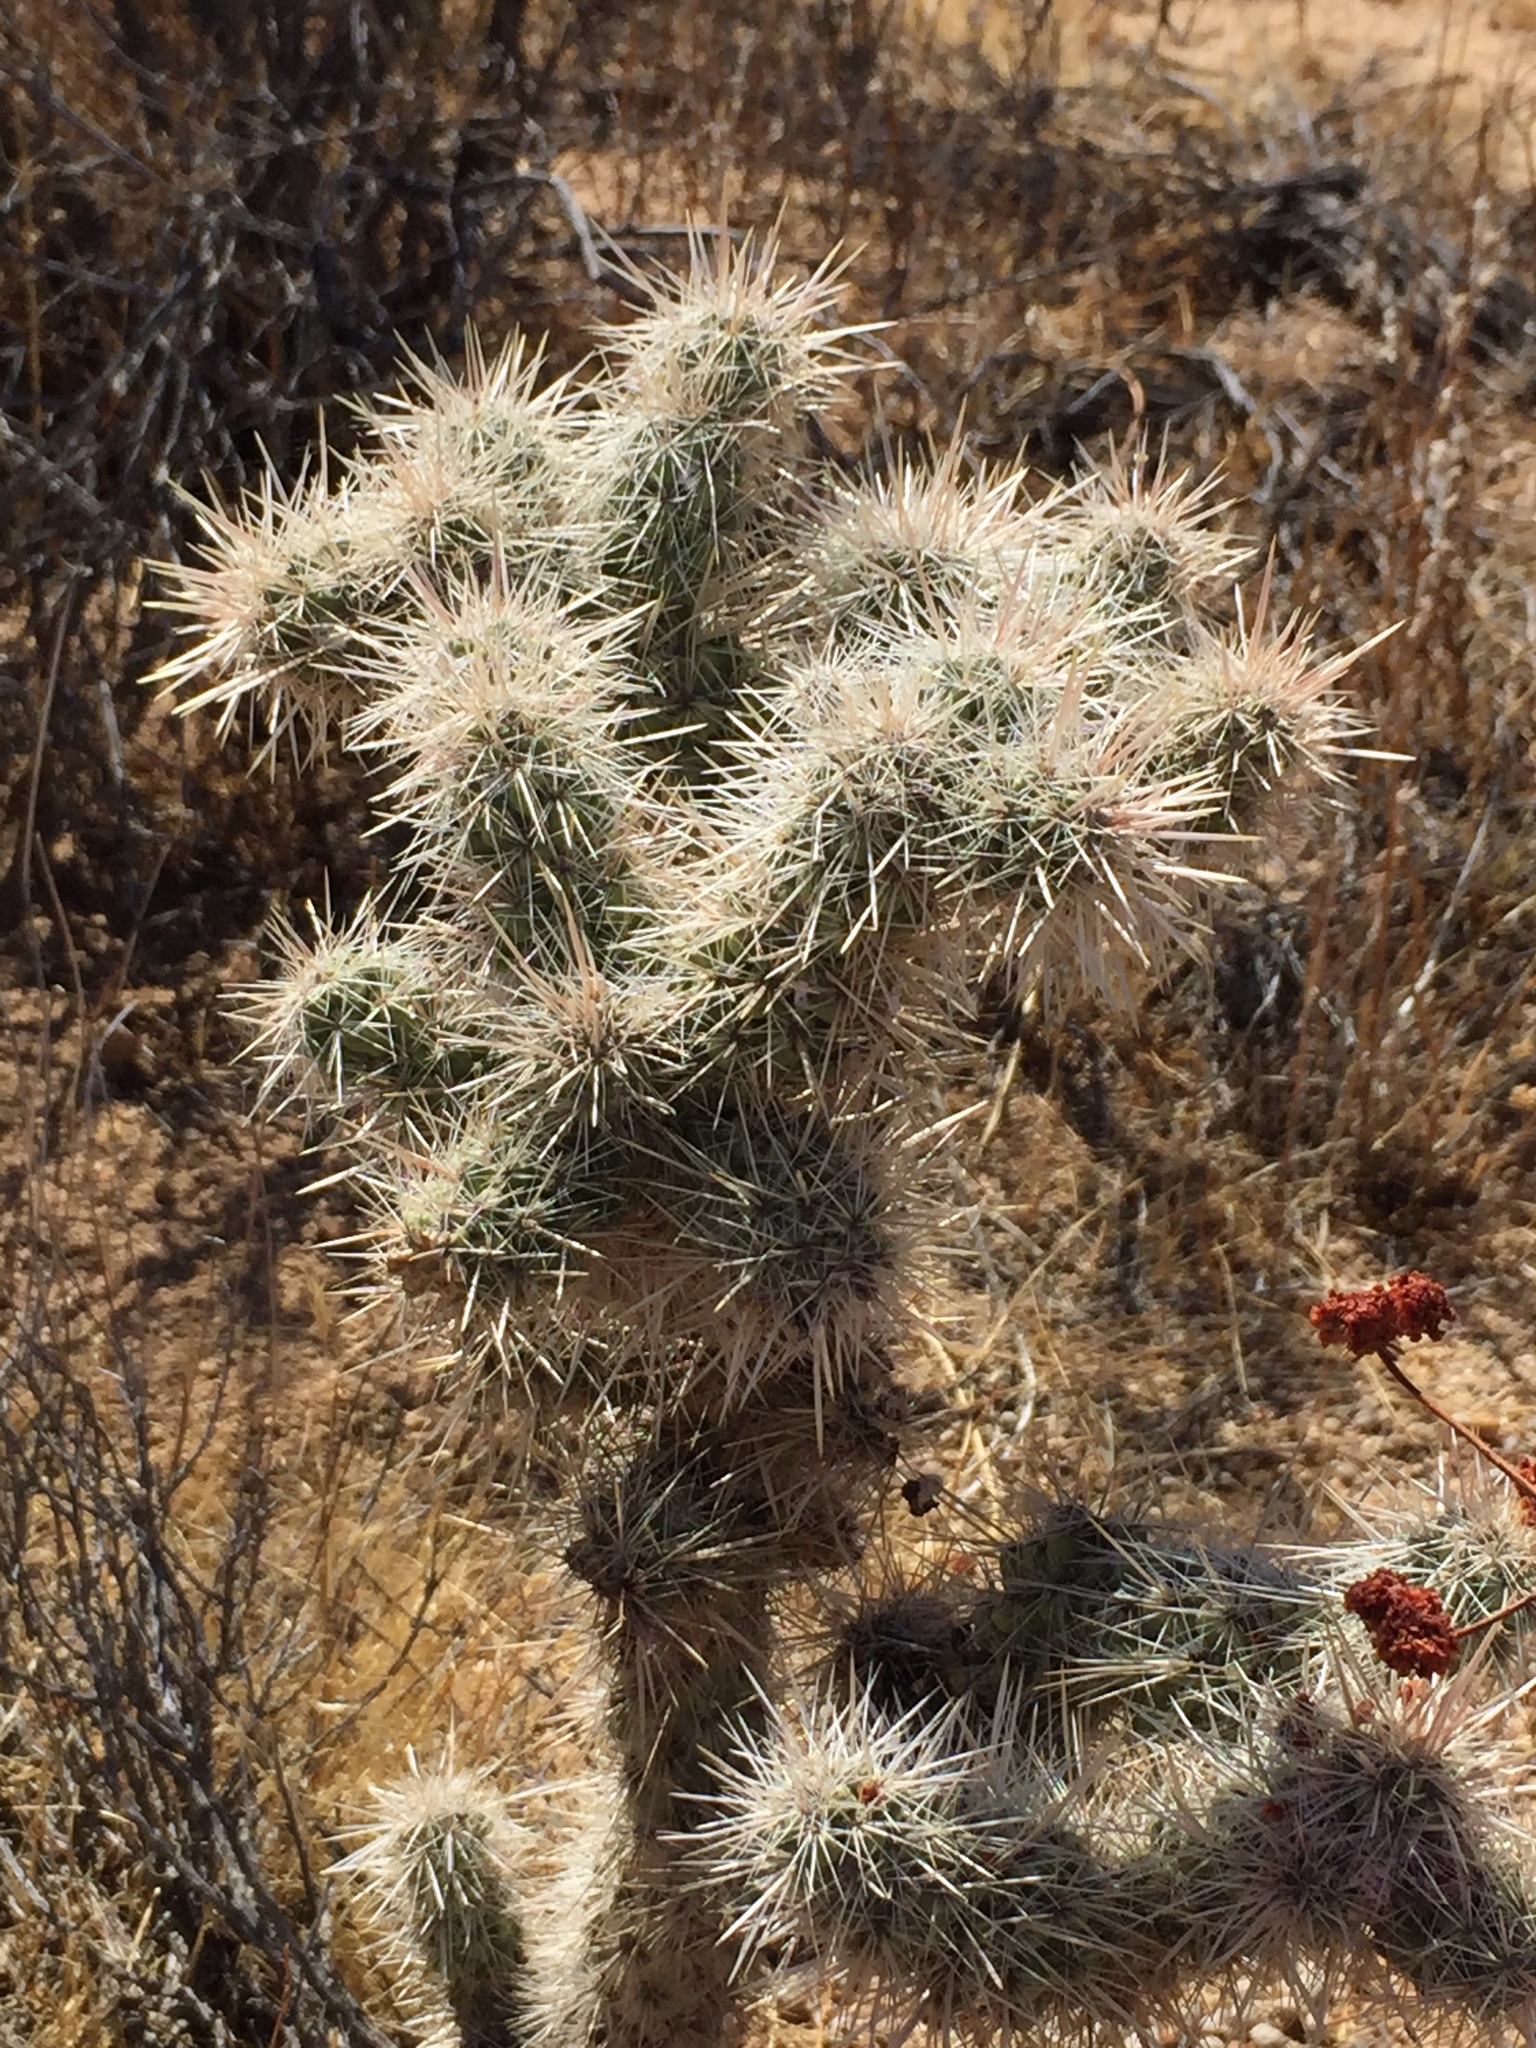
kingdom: Plantae
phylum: Tracheophyta
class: Magnoliopsida
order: Caryophyllales
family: Cactaceae
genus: Cylindropuntia
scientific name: Cylindropuntia echinocarpa
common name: Ground cholla
